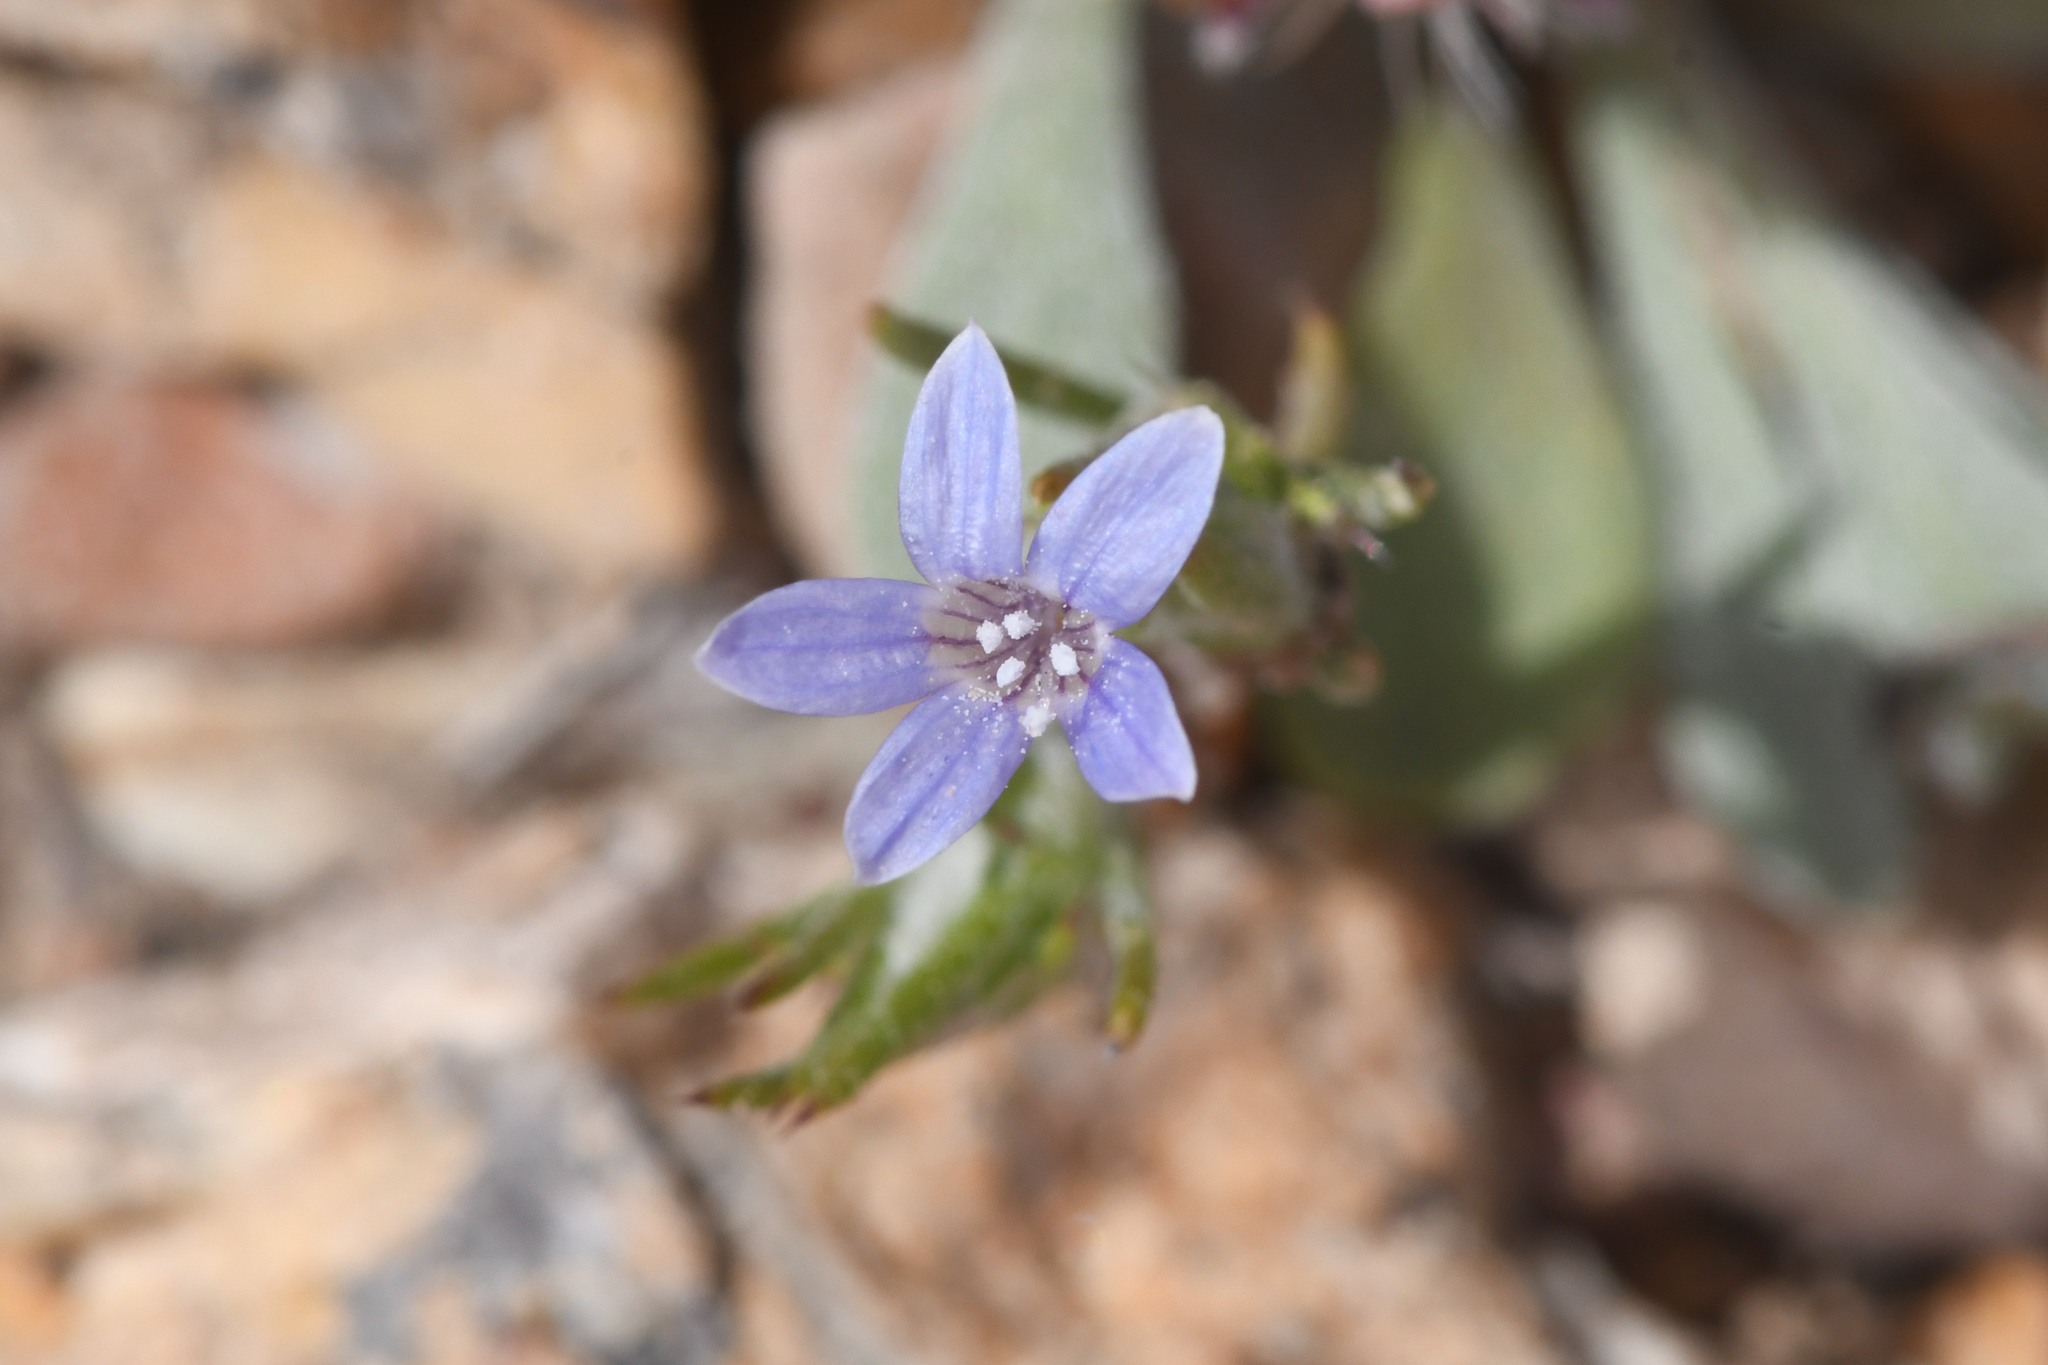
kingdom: Plantae
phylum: Tracheophyta
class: Magnoliopsida
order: Ericales
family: Polemoniaceae
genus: Eriastrum
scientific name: Eriastrum wilcoxii
